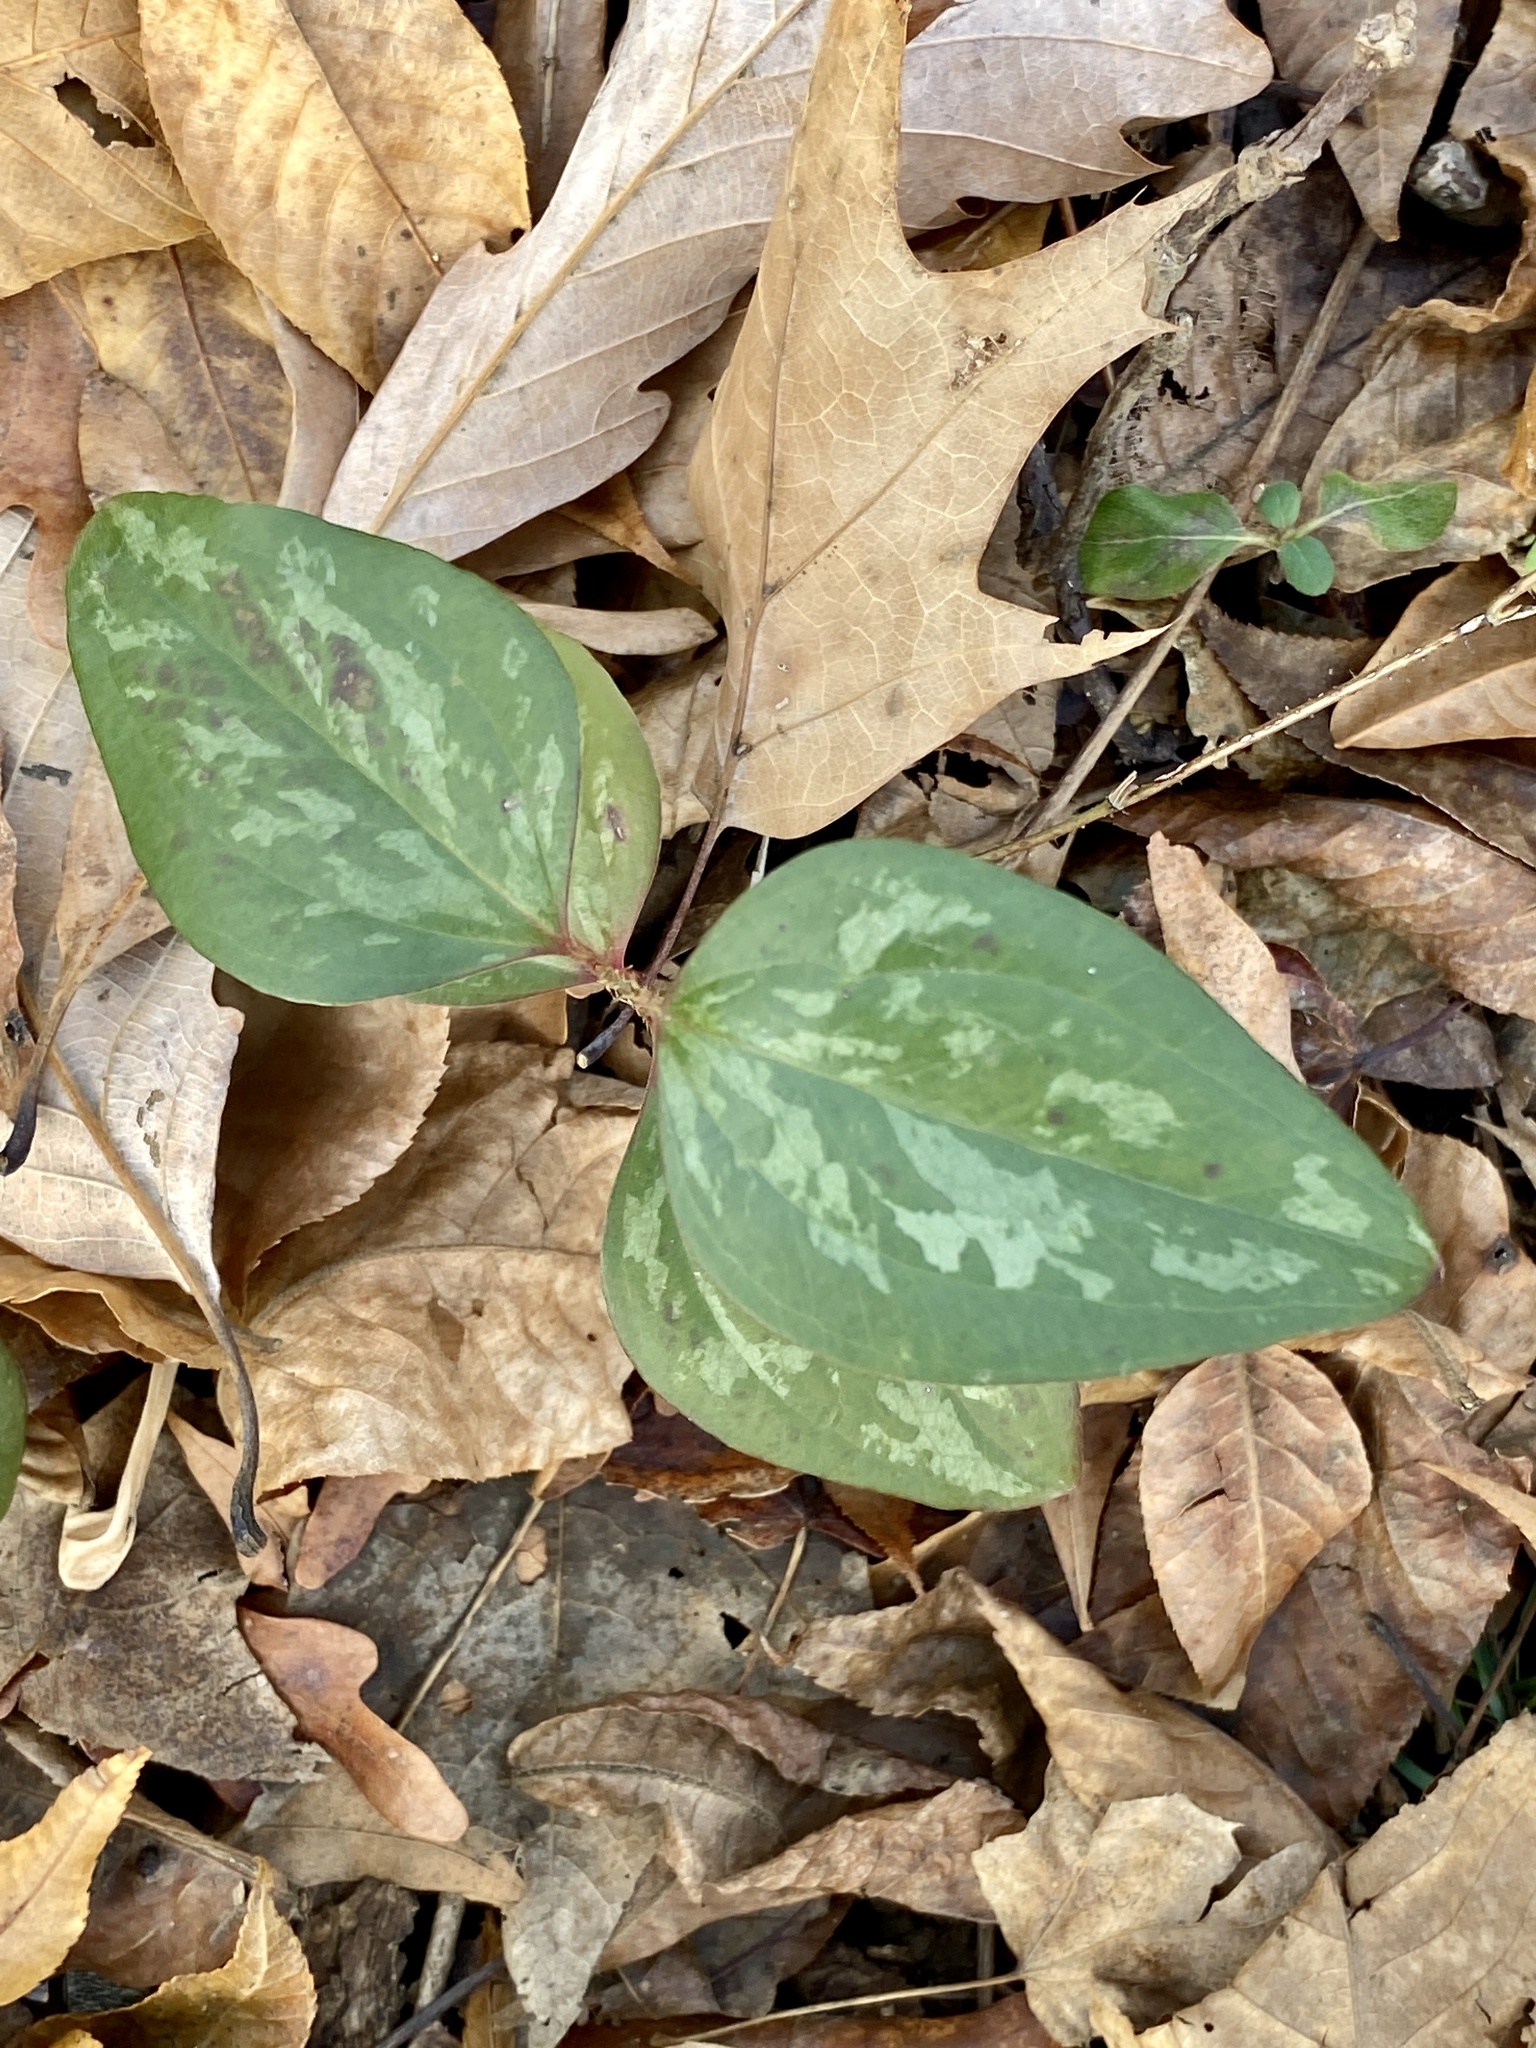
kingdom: Plantae
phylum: Tracheophyta
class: Liliopsida
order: Liliales
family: Smilacaceae
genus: Smilax
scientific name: Smilax glauca
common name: Cat greenbrier
